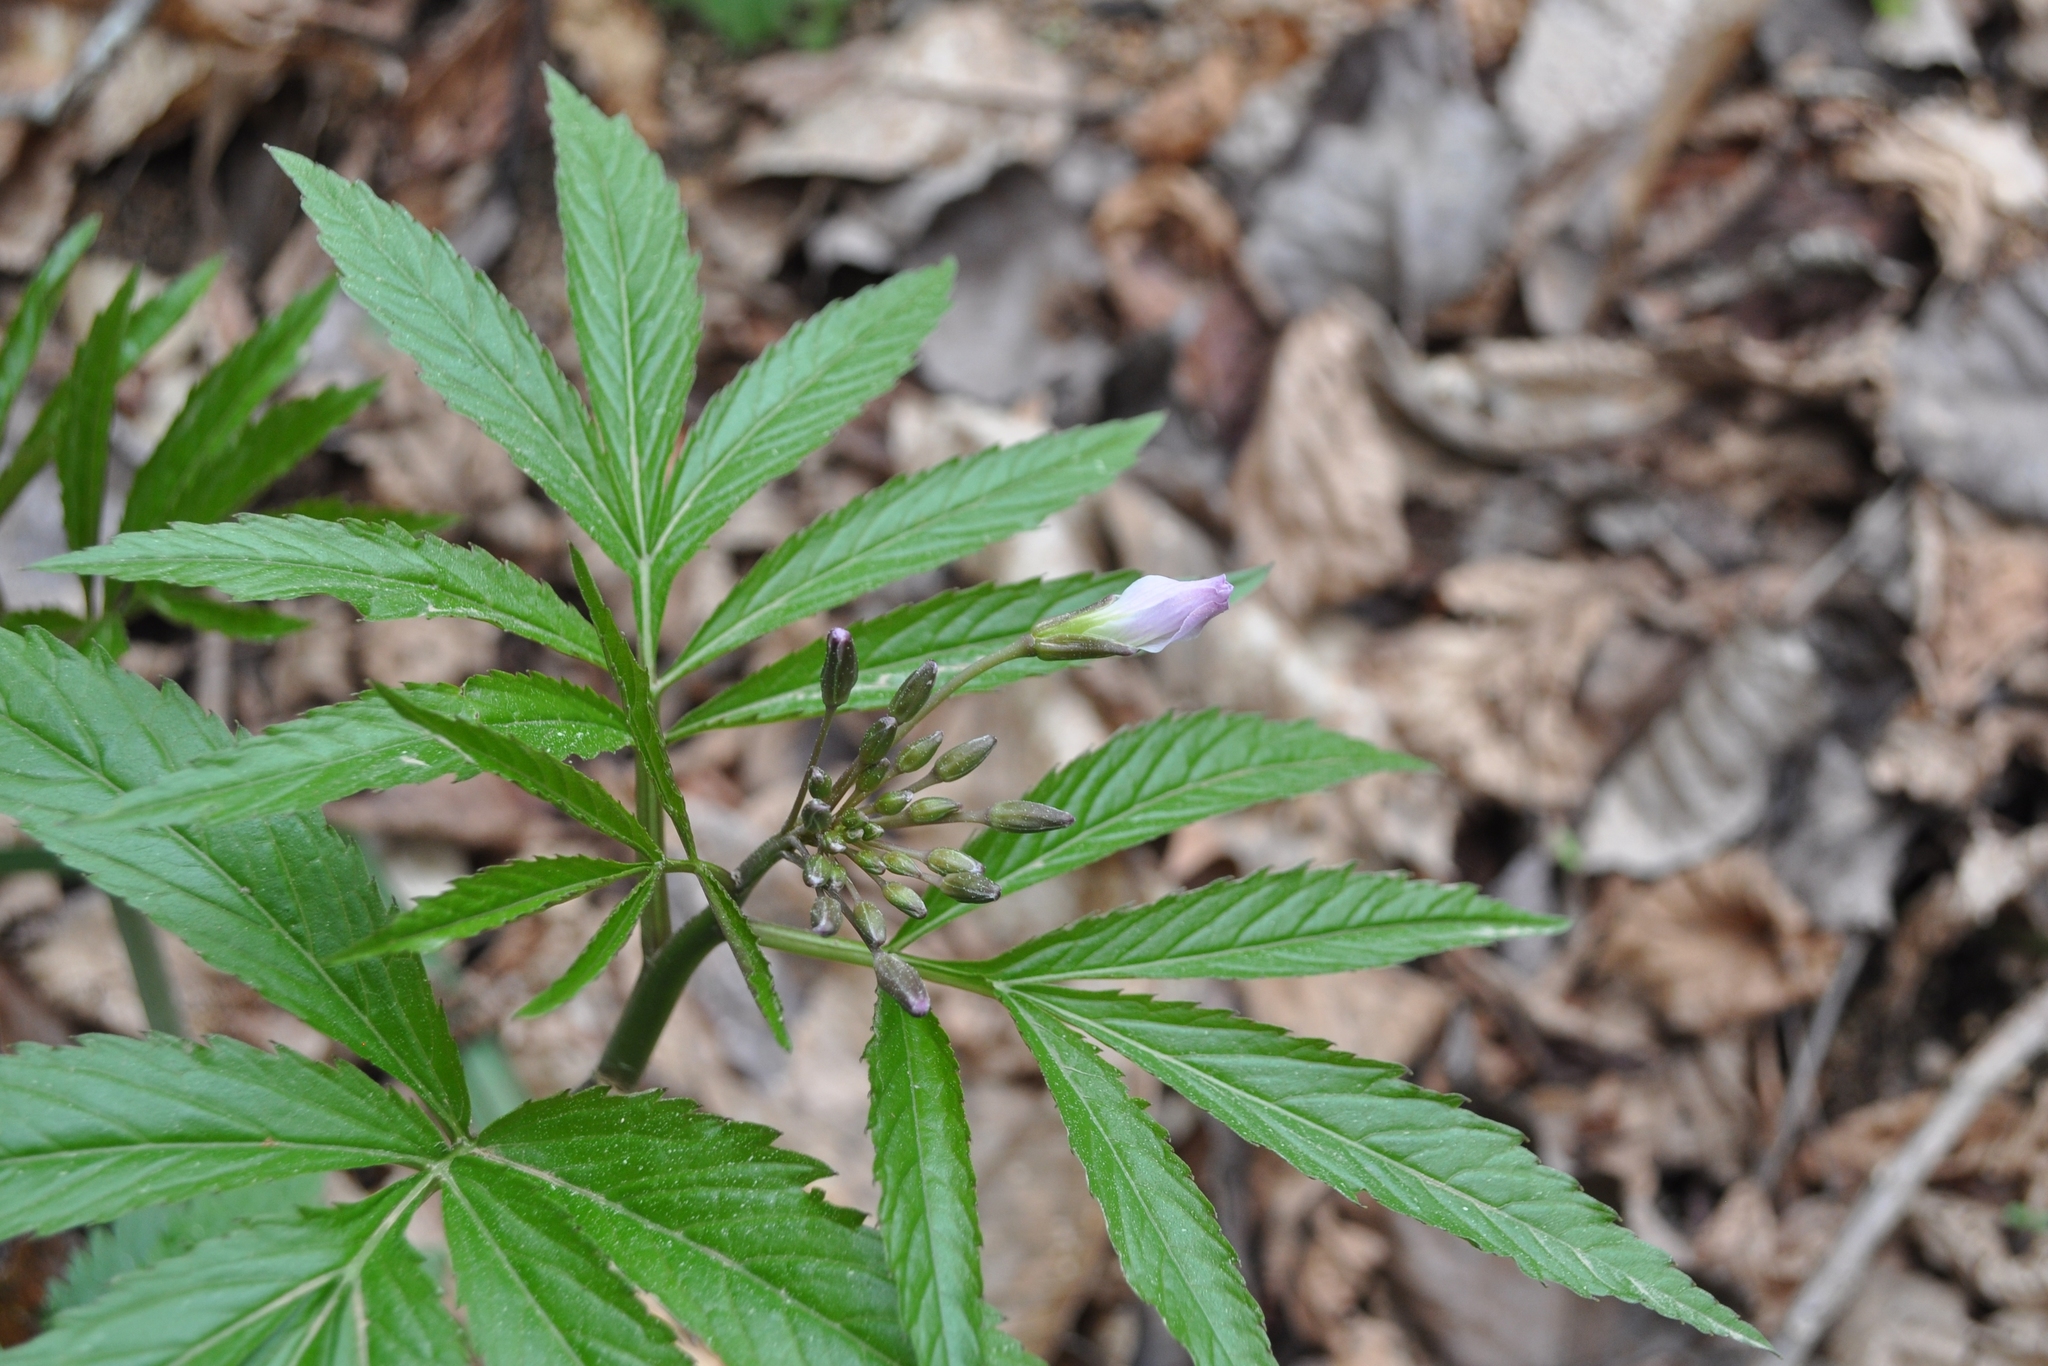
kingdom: Plantae
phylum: Tracheophyta
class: Magnoliopsida
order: Brassicales
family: Brassicaceae
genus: Cardamine
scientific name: Cardamine heptaphylla
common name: Pinnate coralroot
